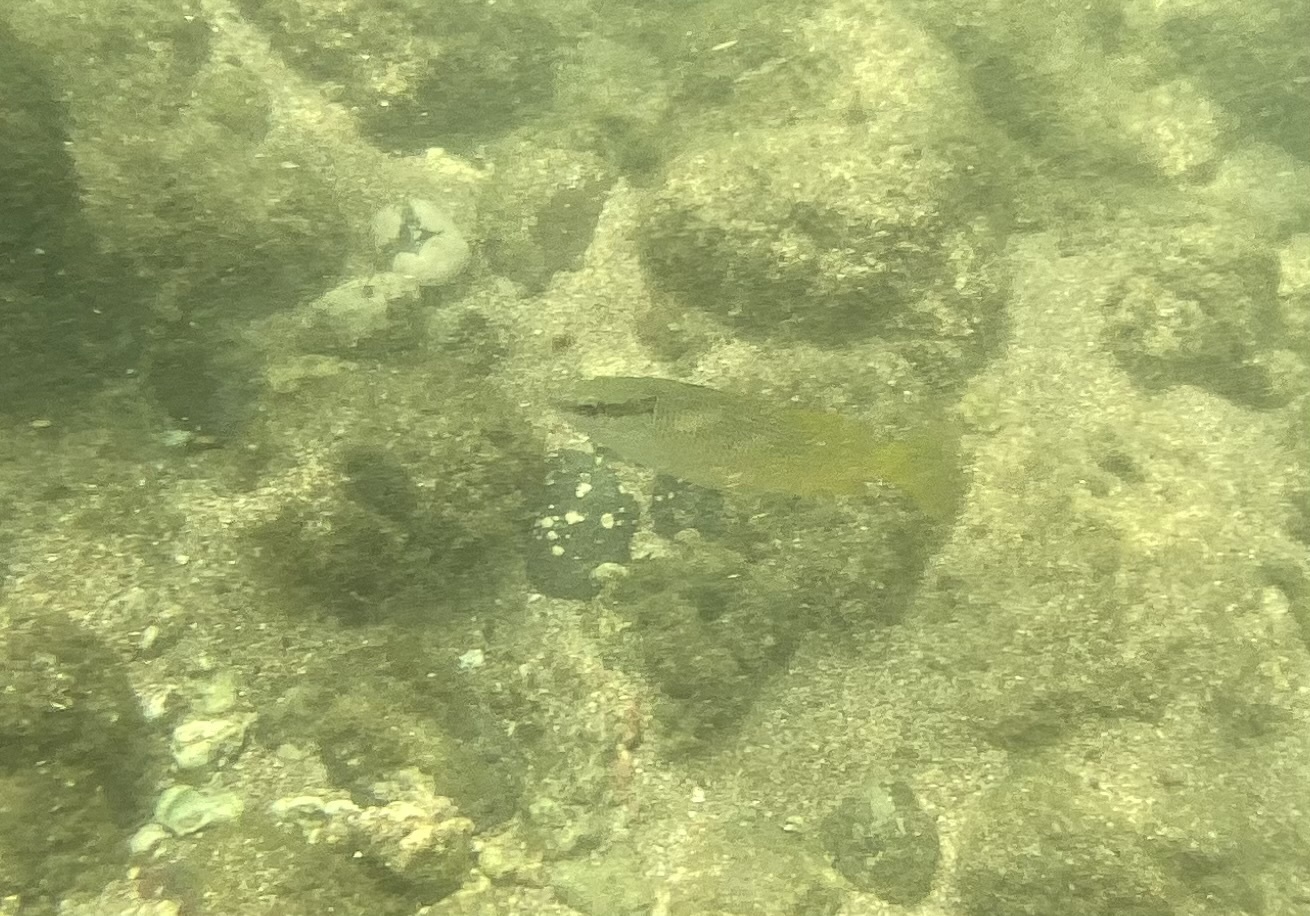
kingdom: Animalia
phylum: Chordata
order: Perciformes
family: Lutjanidae
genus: Lutjanus
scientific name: Lutjanus argentiventris
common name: Yellow snapper
